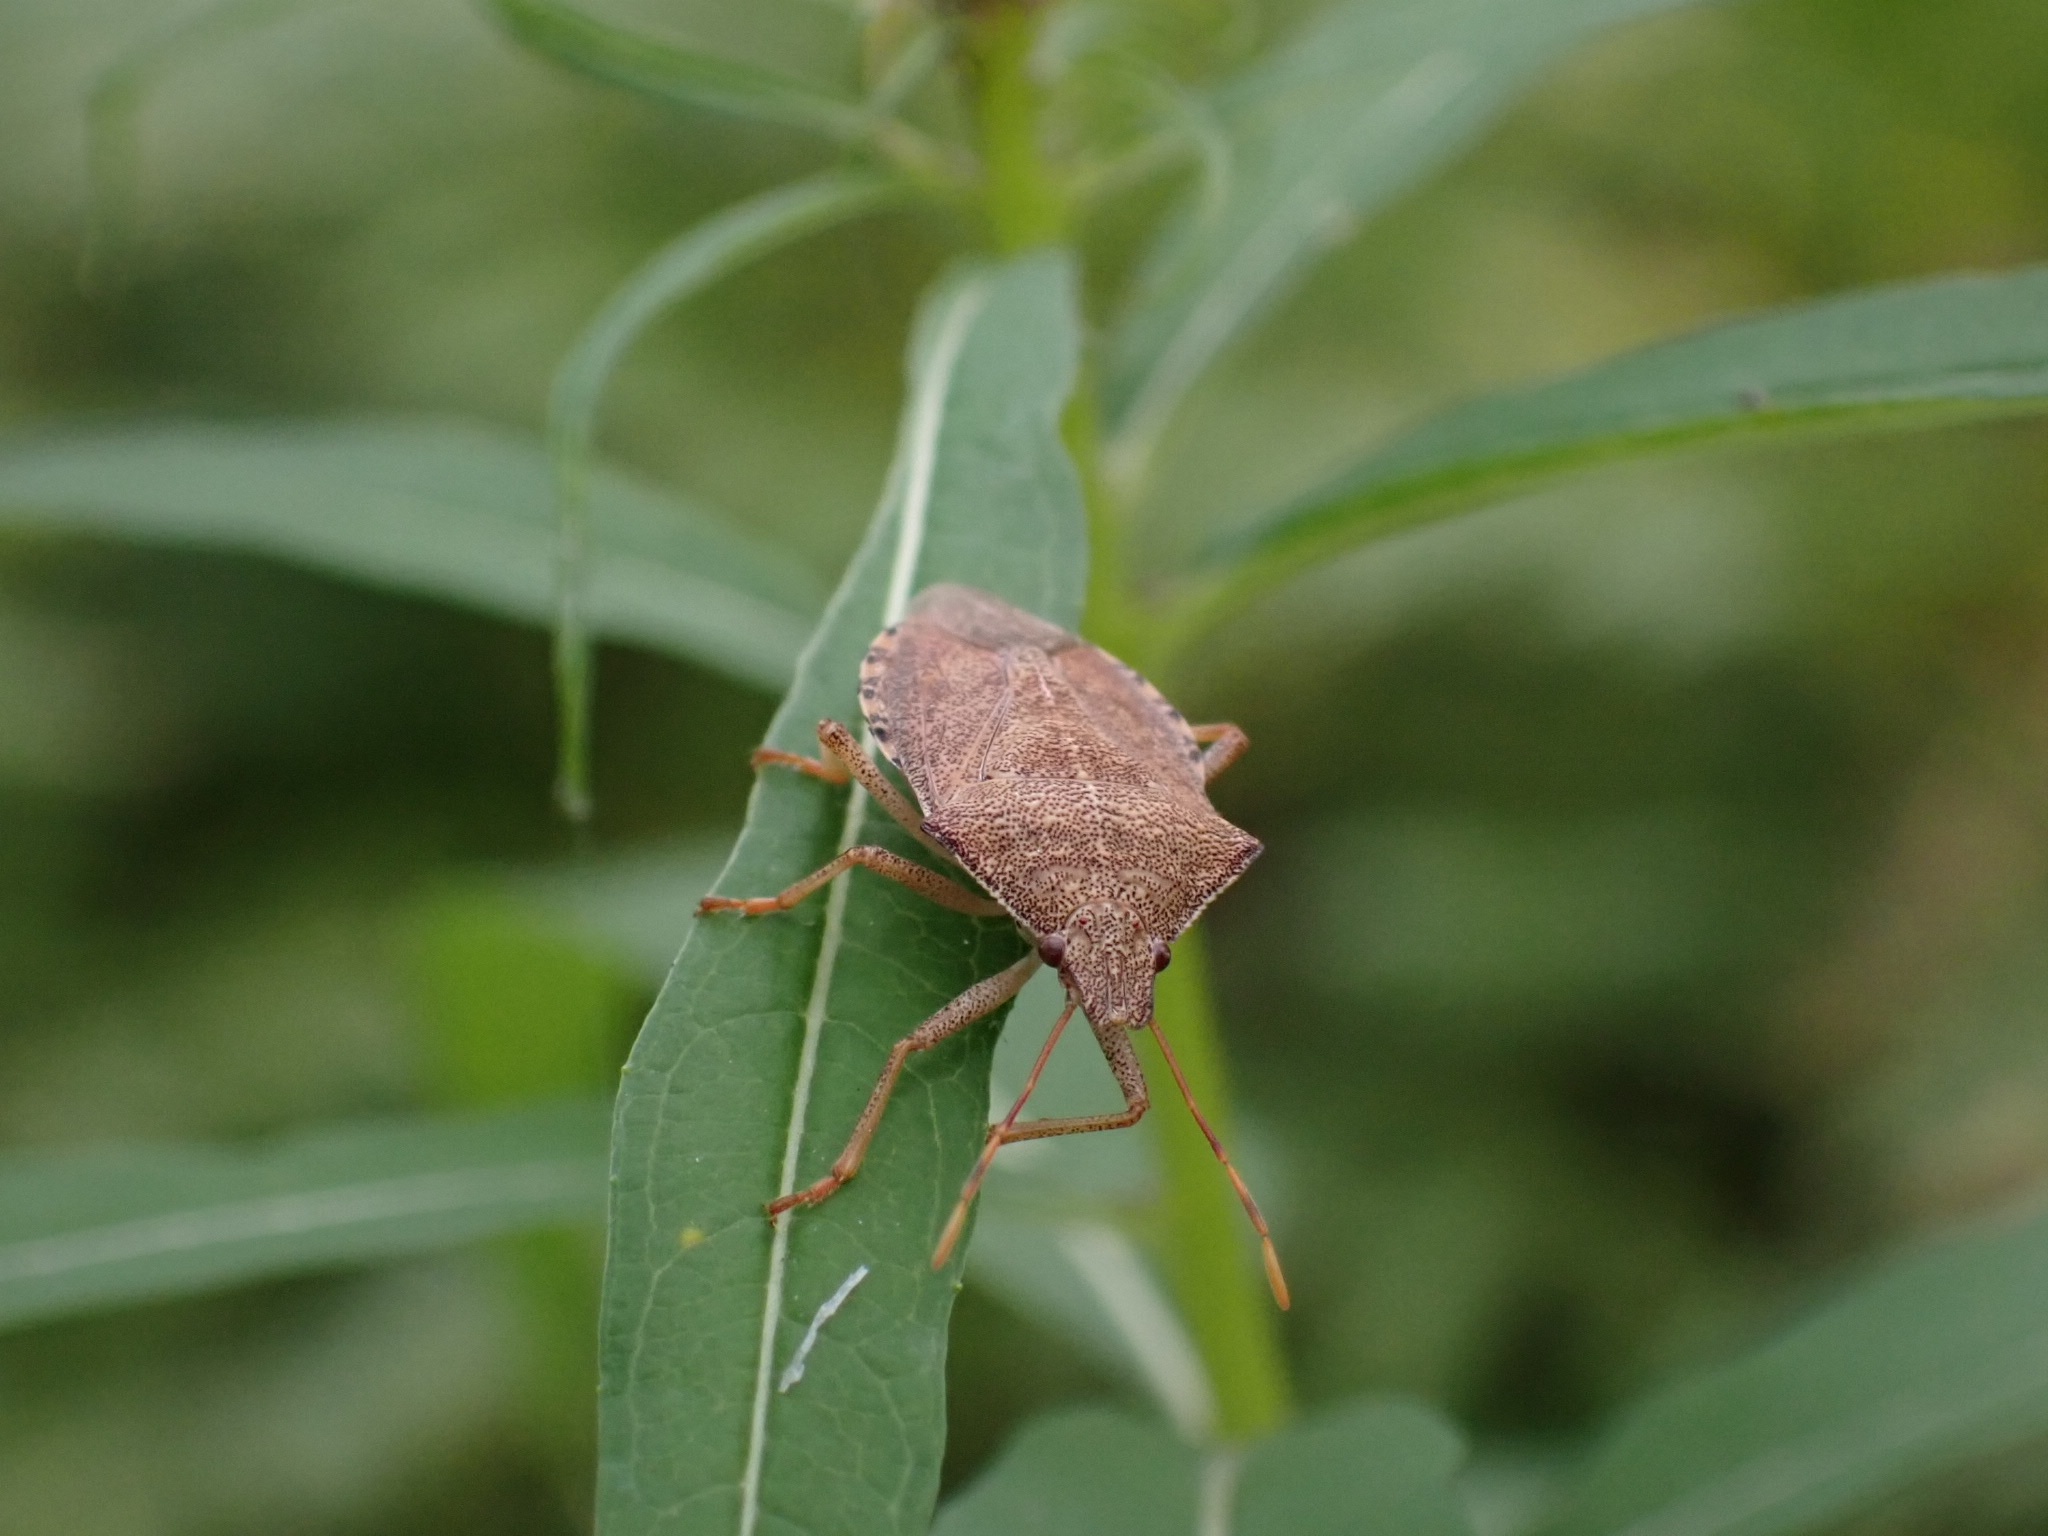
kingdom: Animalia
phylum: Arthropoda
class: Insecta
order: Hemiptera
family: Pentatomidae
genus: Arma
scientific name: Arma custos
